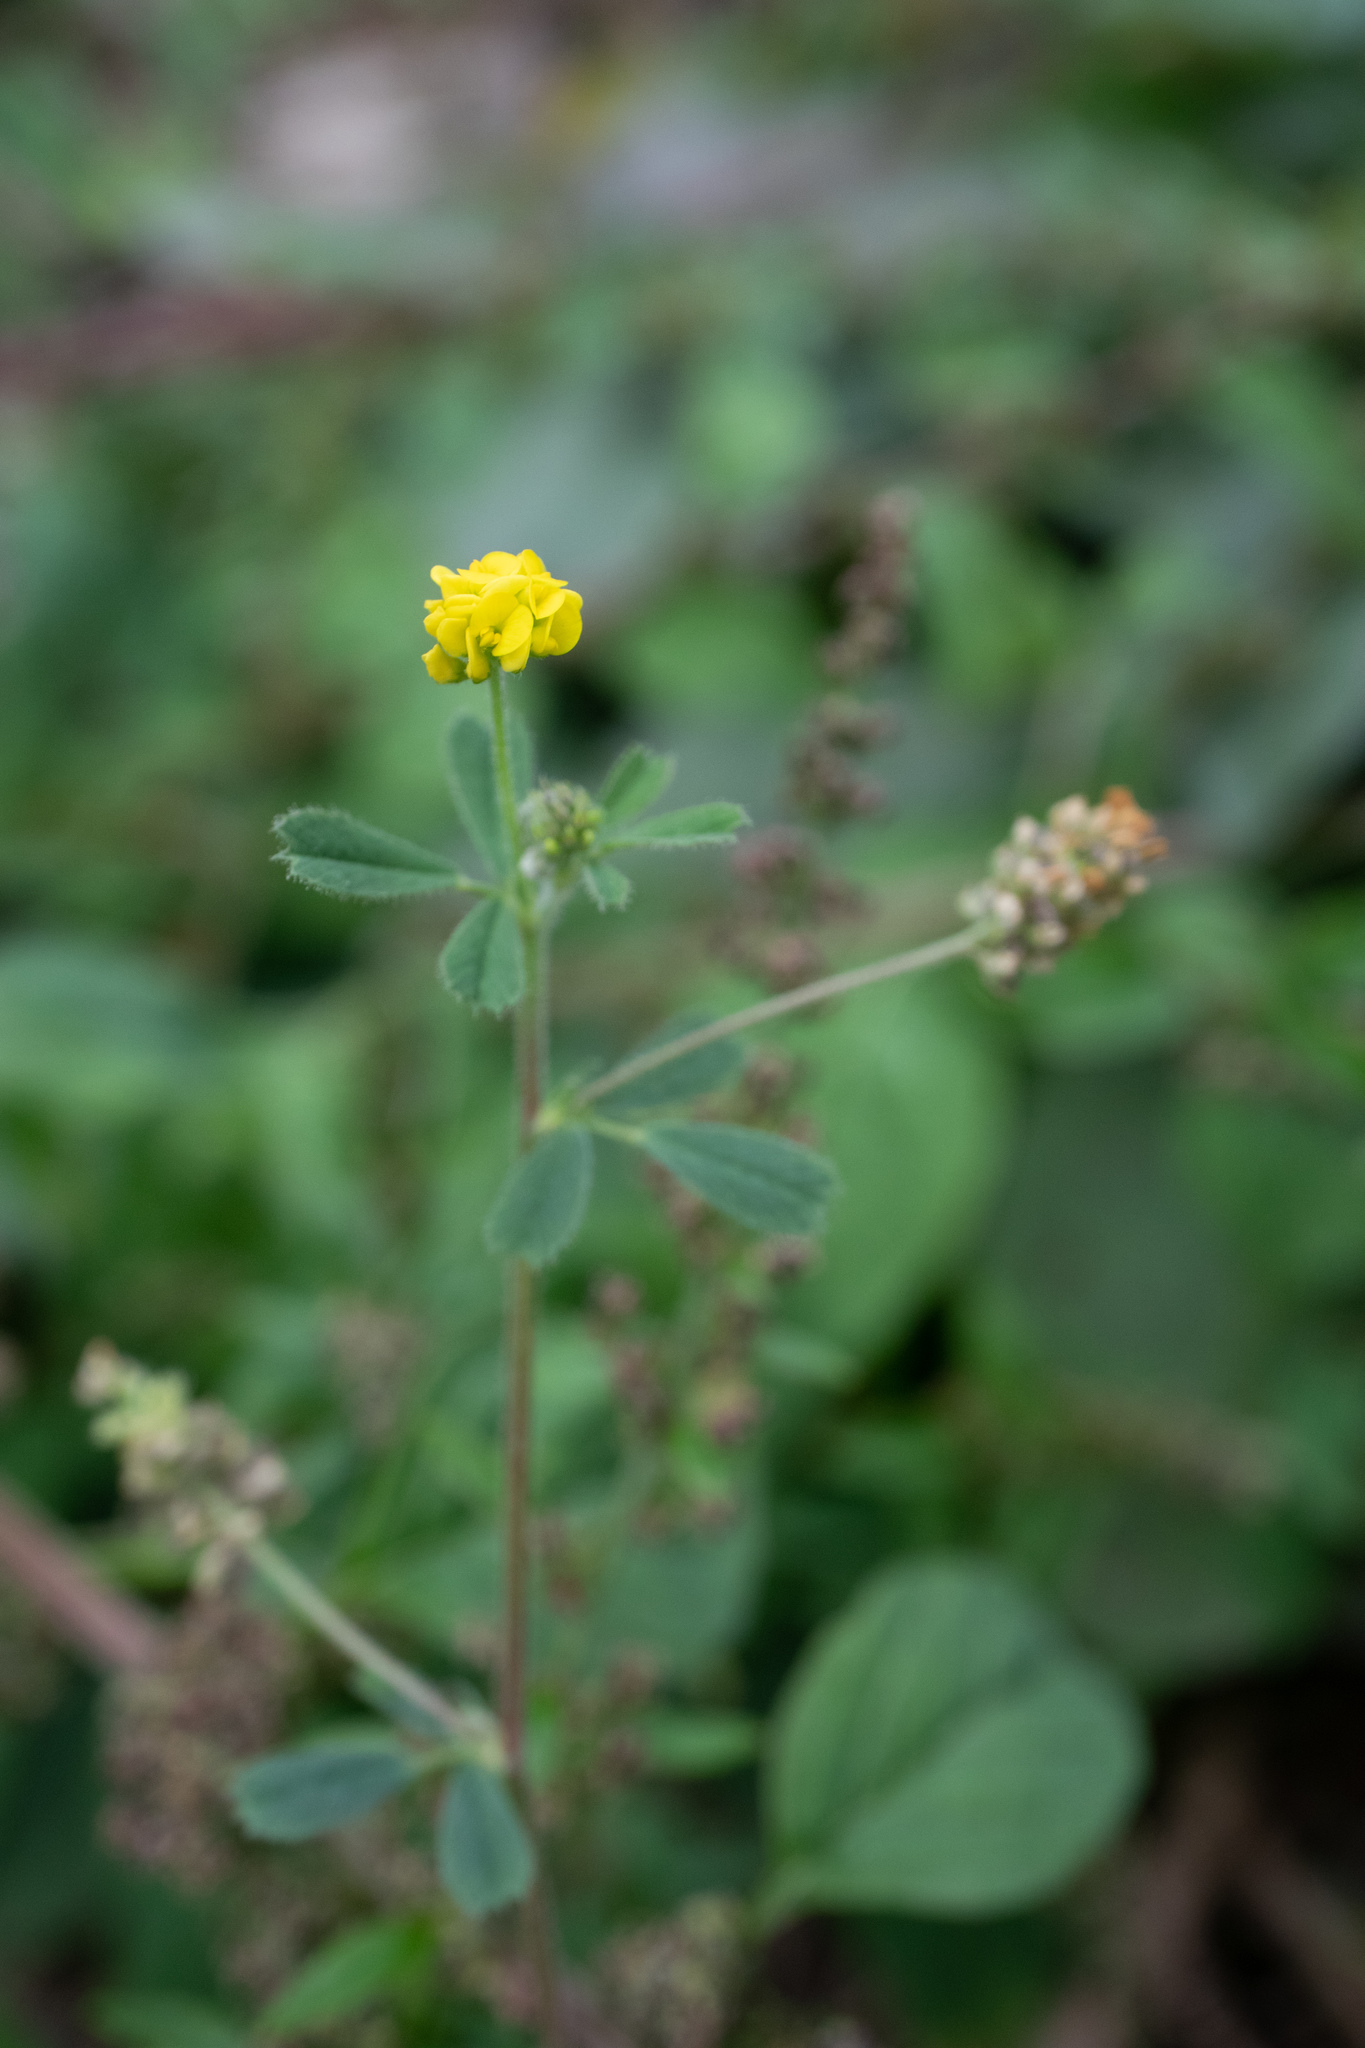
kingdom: Plantae
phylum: Tracheophyta
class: Magnoliopsida
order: Fabales
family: Fabaceae
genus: Medicago
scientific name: Medicago lupulina
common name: Black medick
